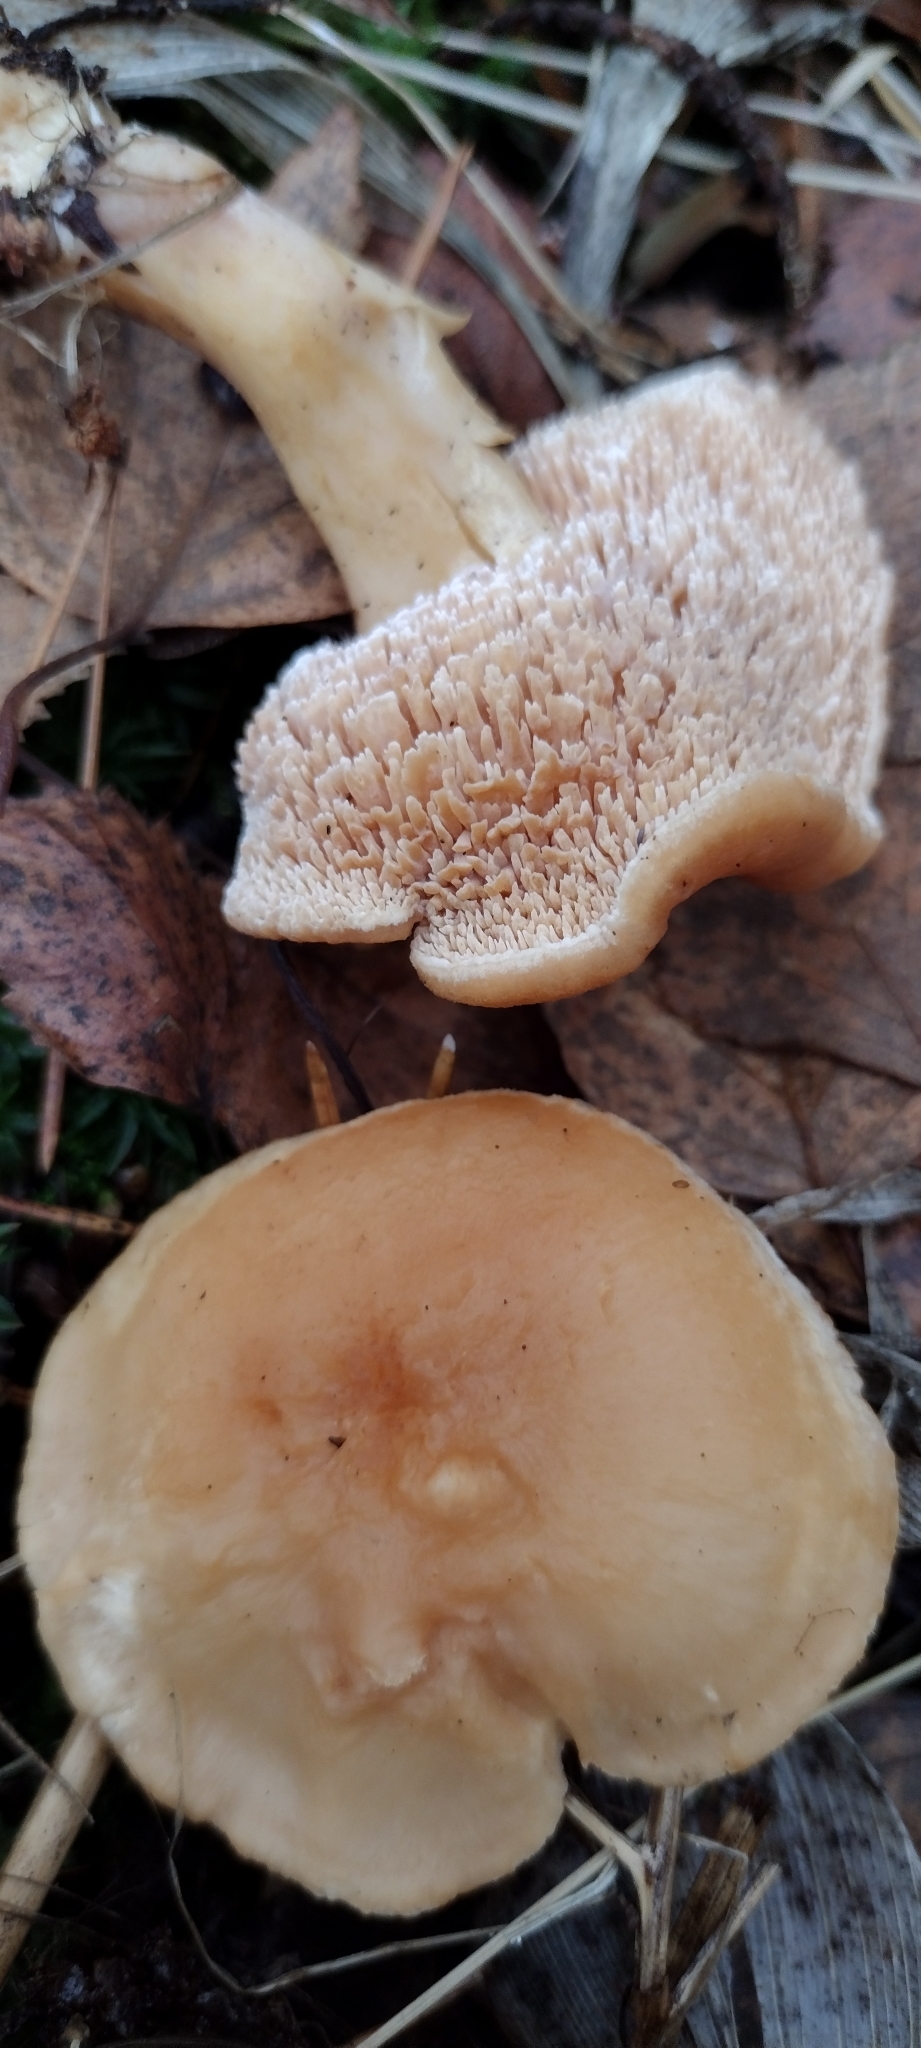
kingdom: Fungi
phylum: Basidiomycota
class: Agaricomycetes
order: Cantharellales
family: Hydnaceae
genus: Hydnum
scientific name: Hydnum rufescens
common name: Terracotta hedgehog
